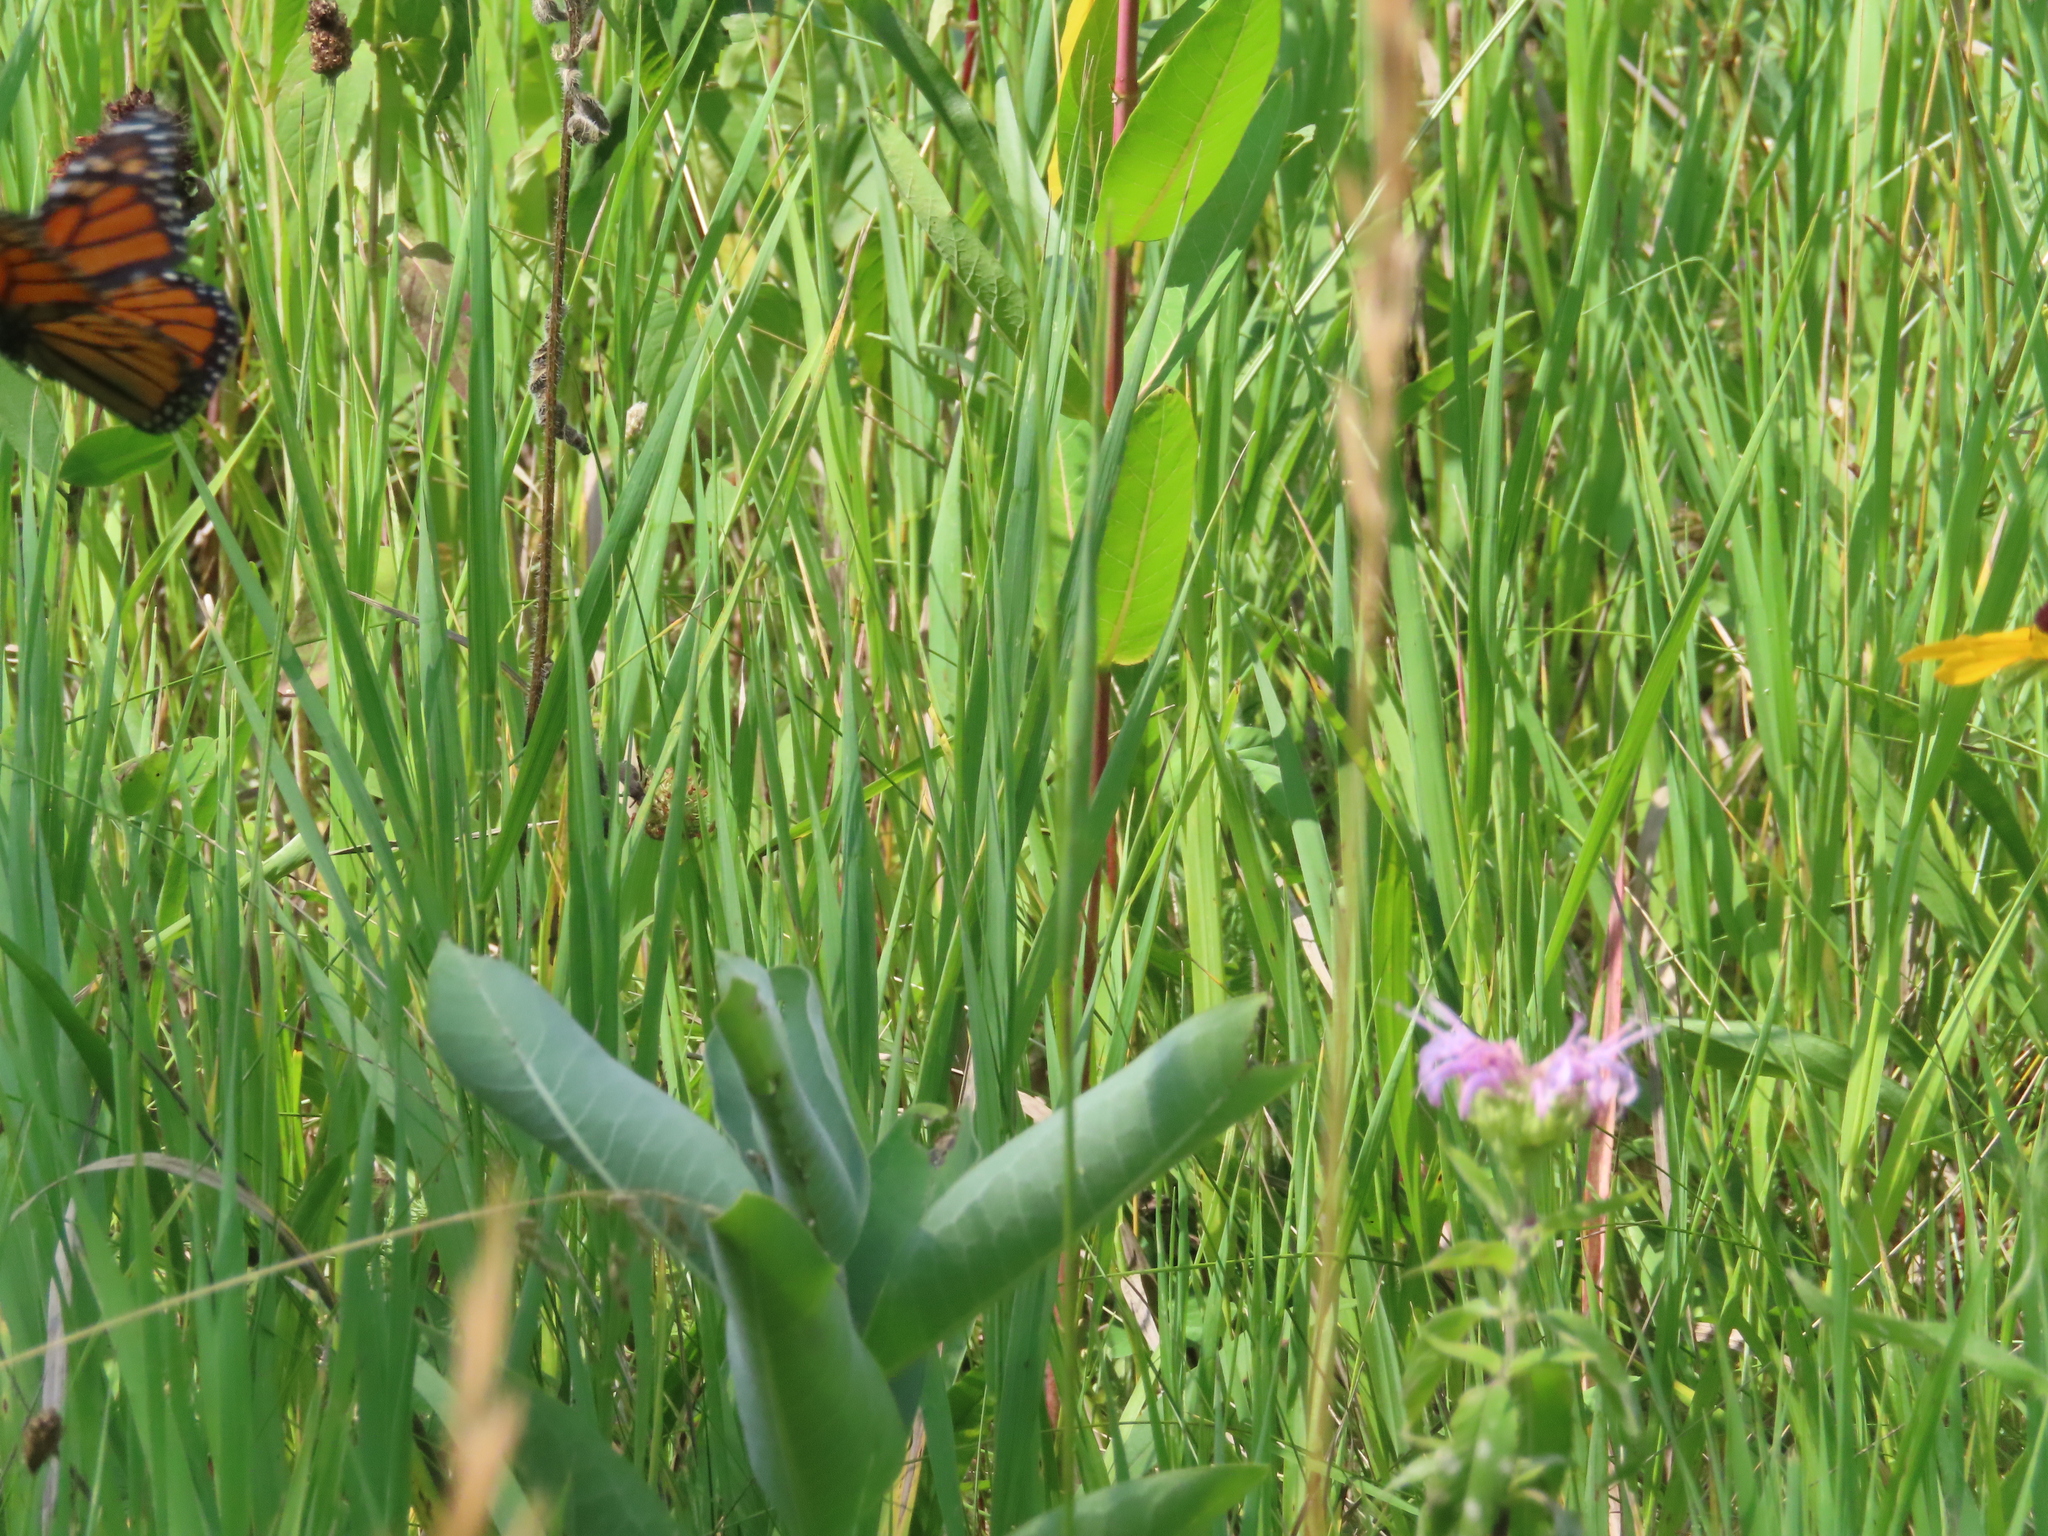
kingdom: Animalia
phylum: Arthropoda
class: Insecta
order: Lepidoptera
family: Nymphalidae
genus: Danaus
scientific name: Danaus plexippus
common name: Monarch
